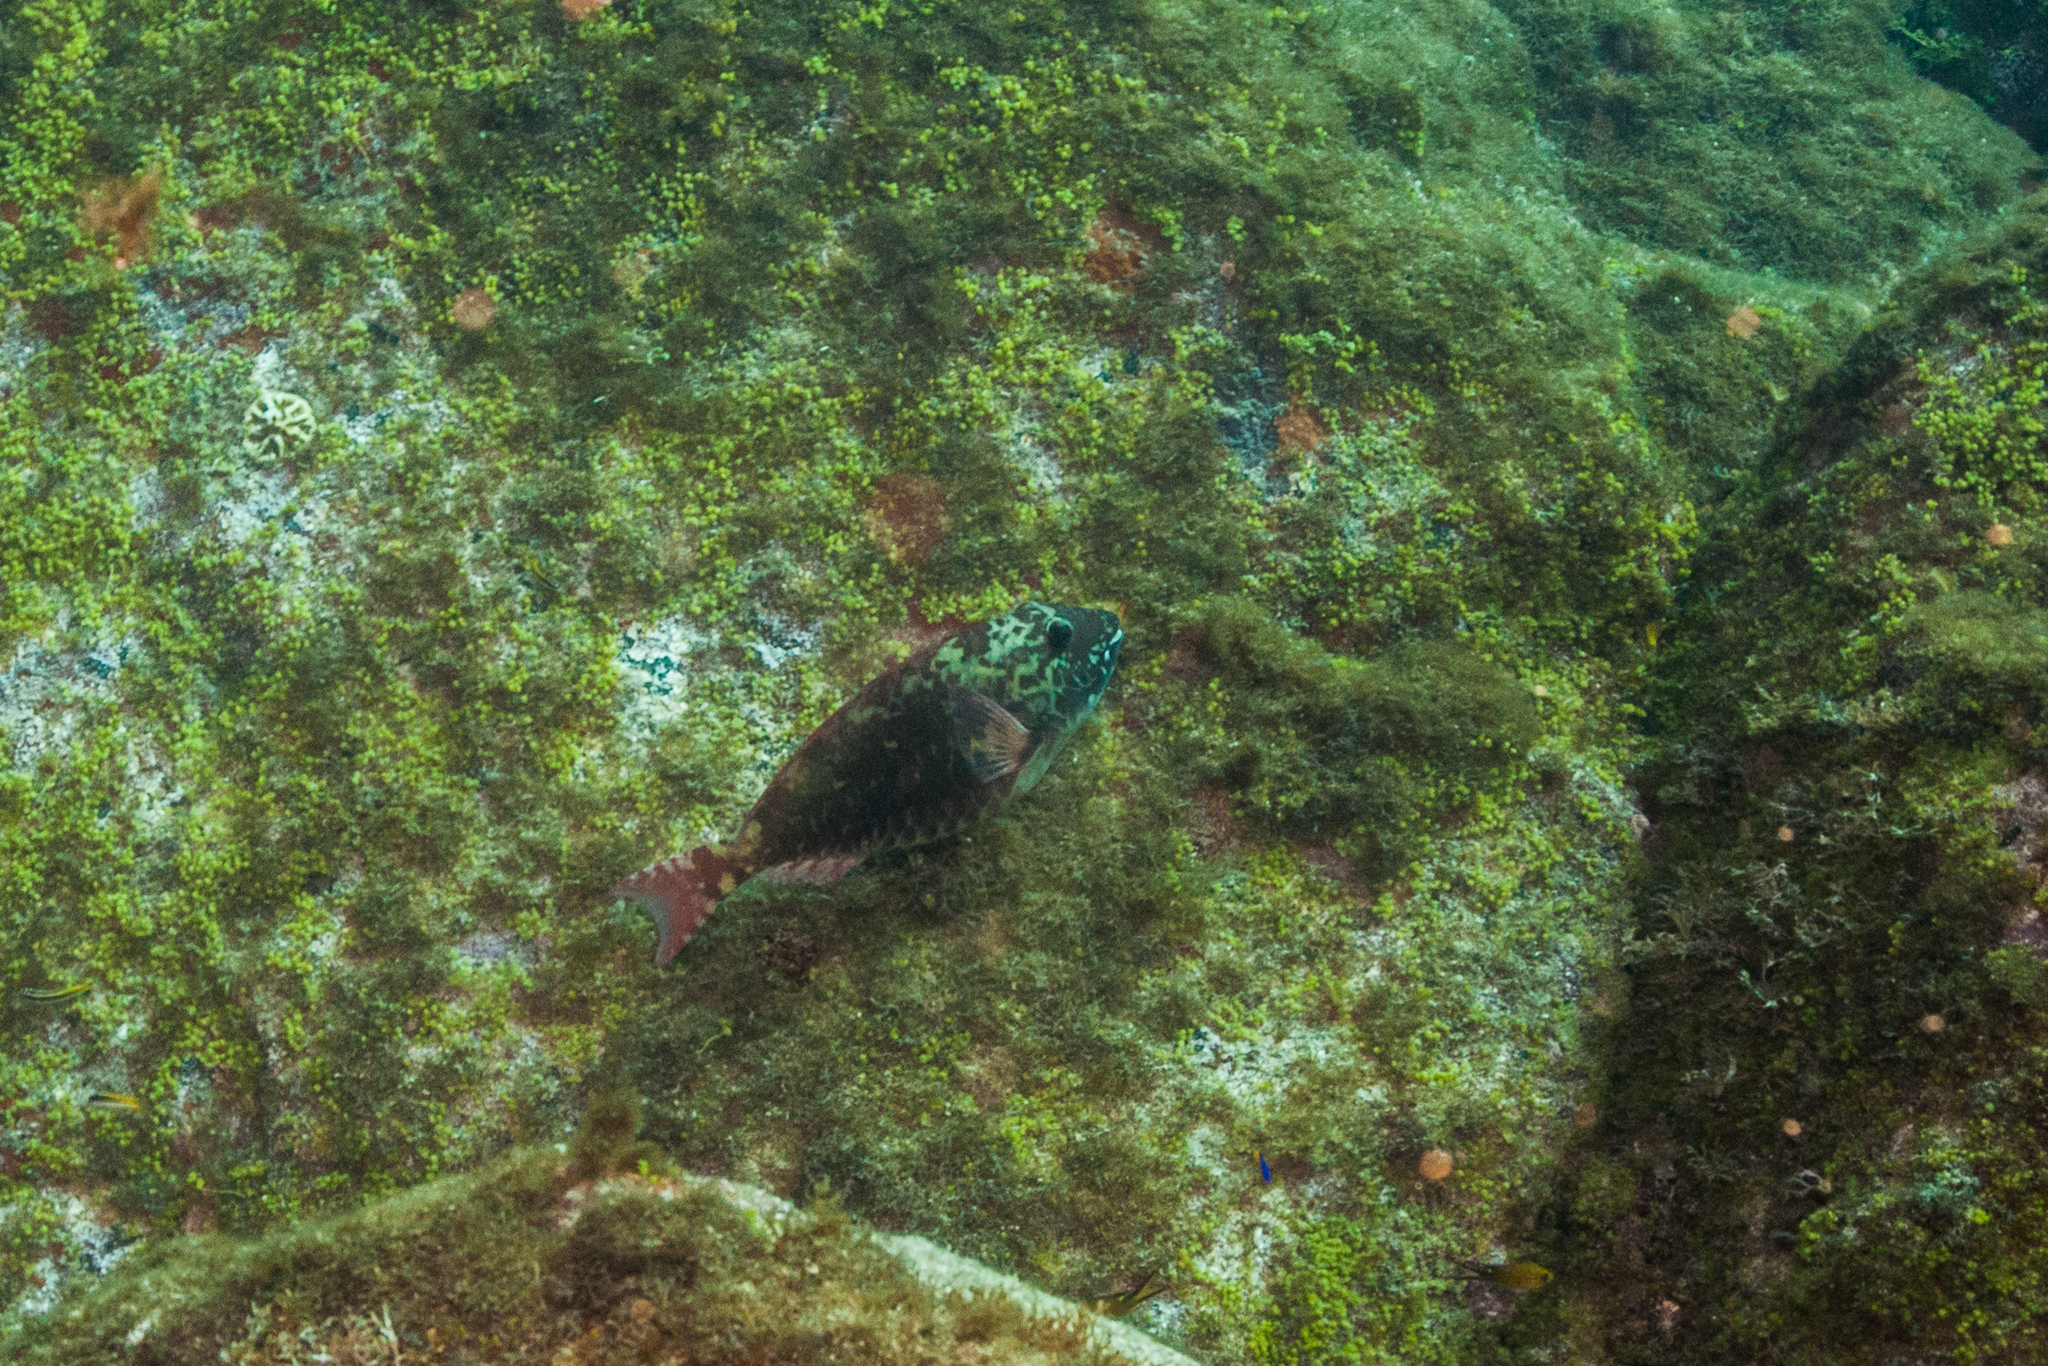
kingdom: Animalia
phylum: Chordata
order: Perciformes
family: Scaridae
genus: Sparisoma
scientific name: Sparisoma frondosum
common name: Agassiz's parrotfish
